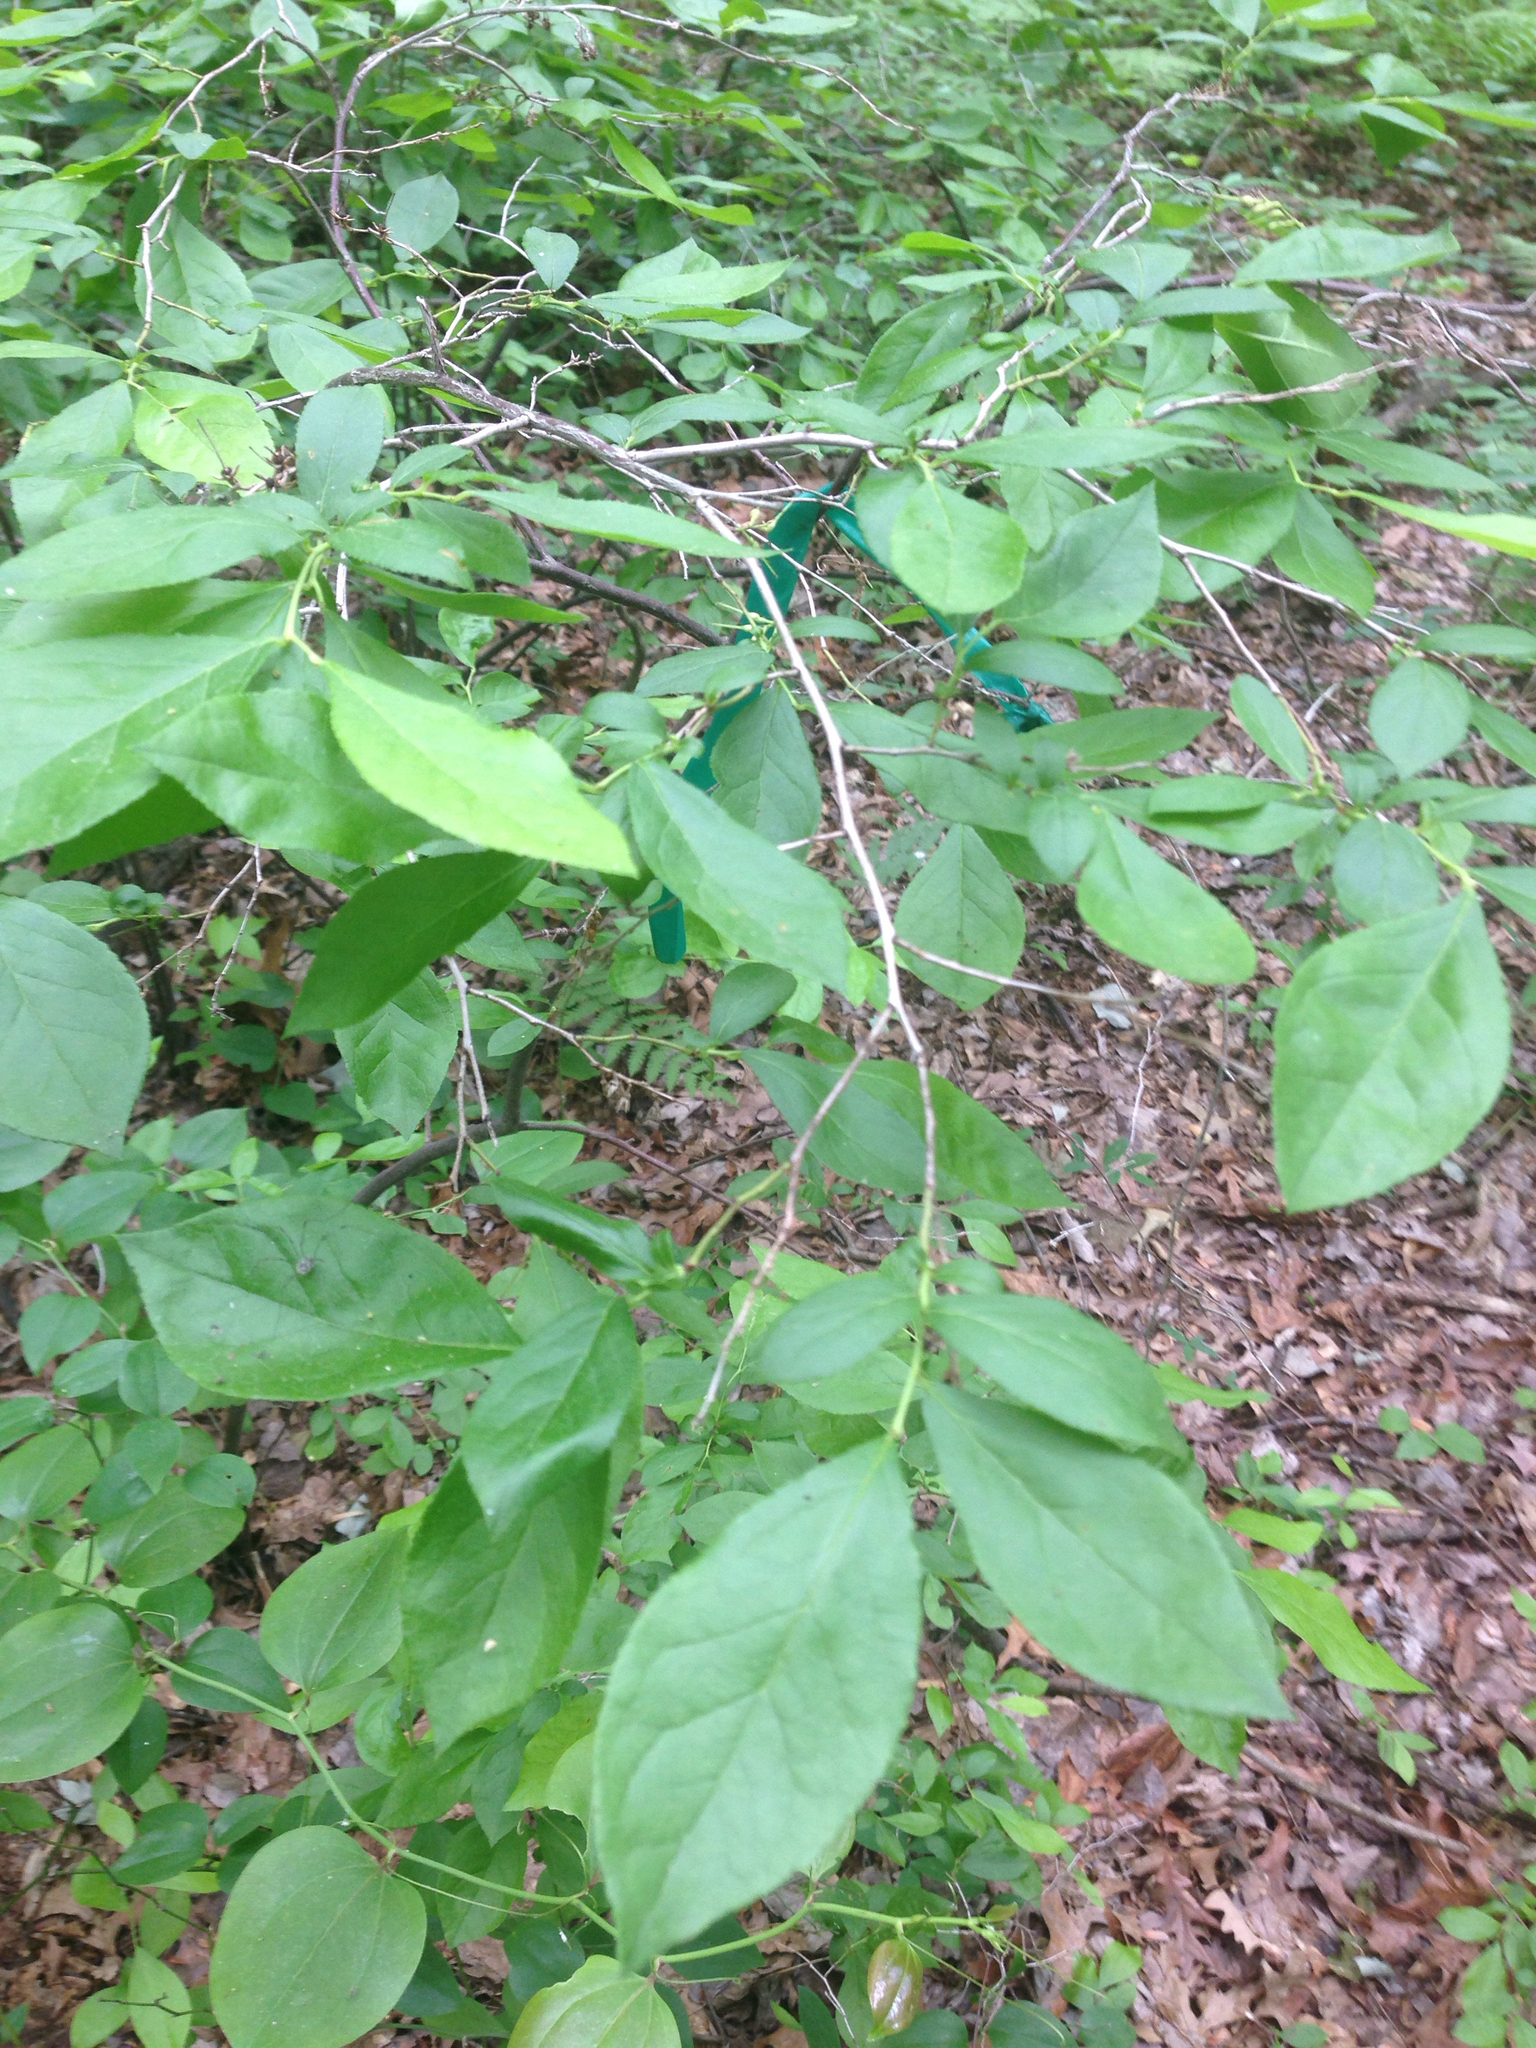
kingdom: Plantae
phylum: Tracheophyta
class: Magnoliopsida
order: Ericales
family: Ericaceae
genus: Eubotrys
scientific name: Eubotrys racemosa
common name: Fetterbush
